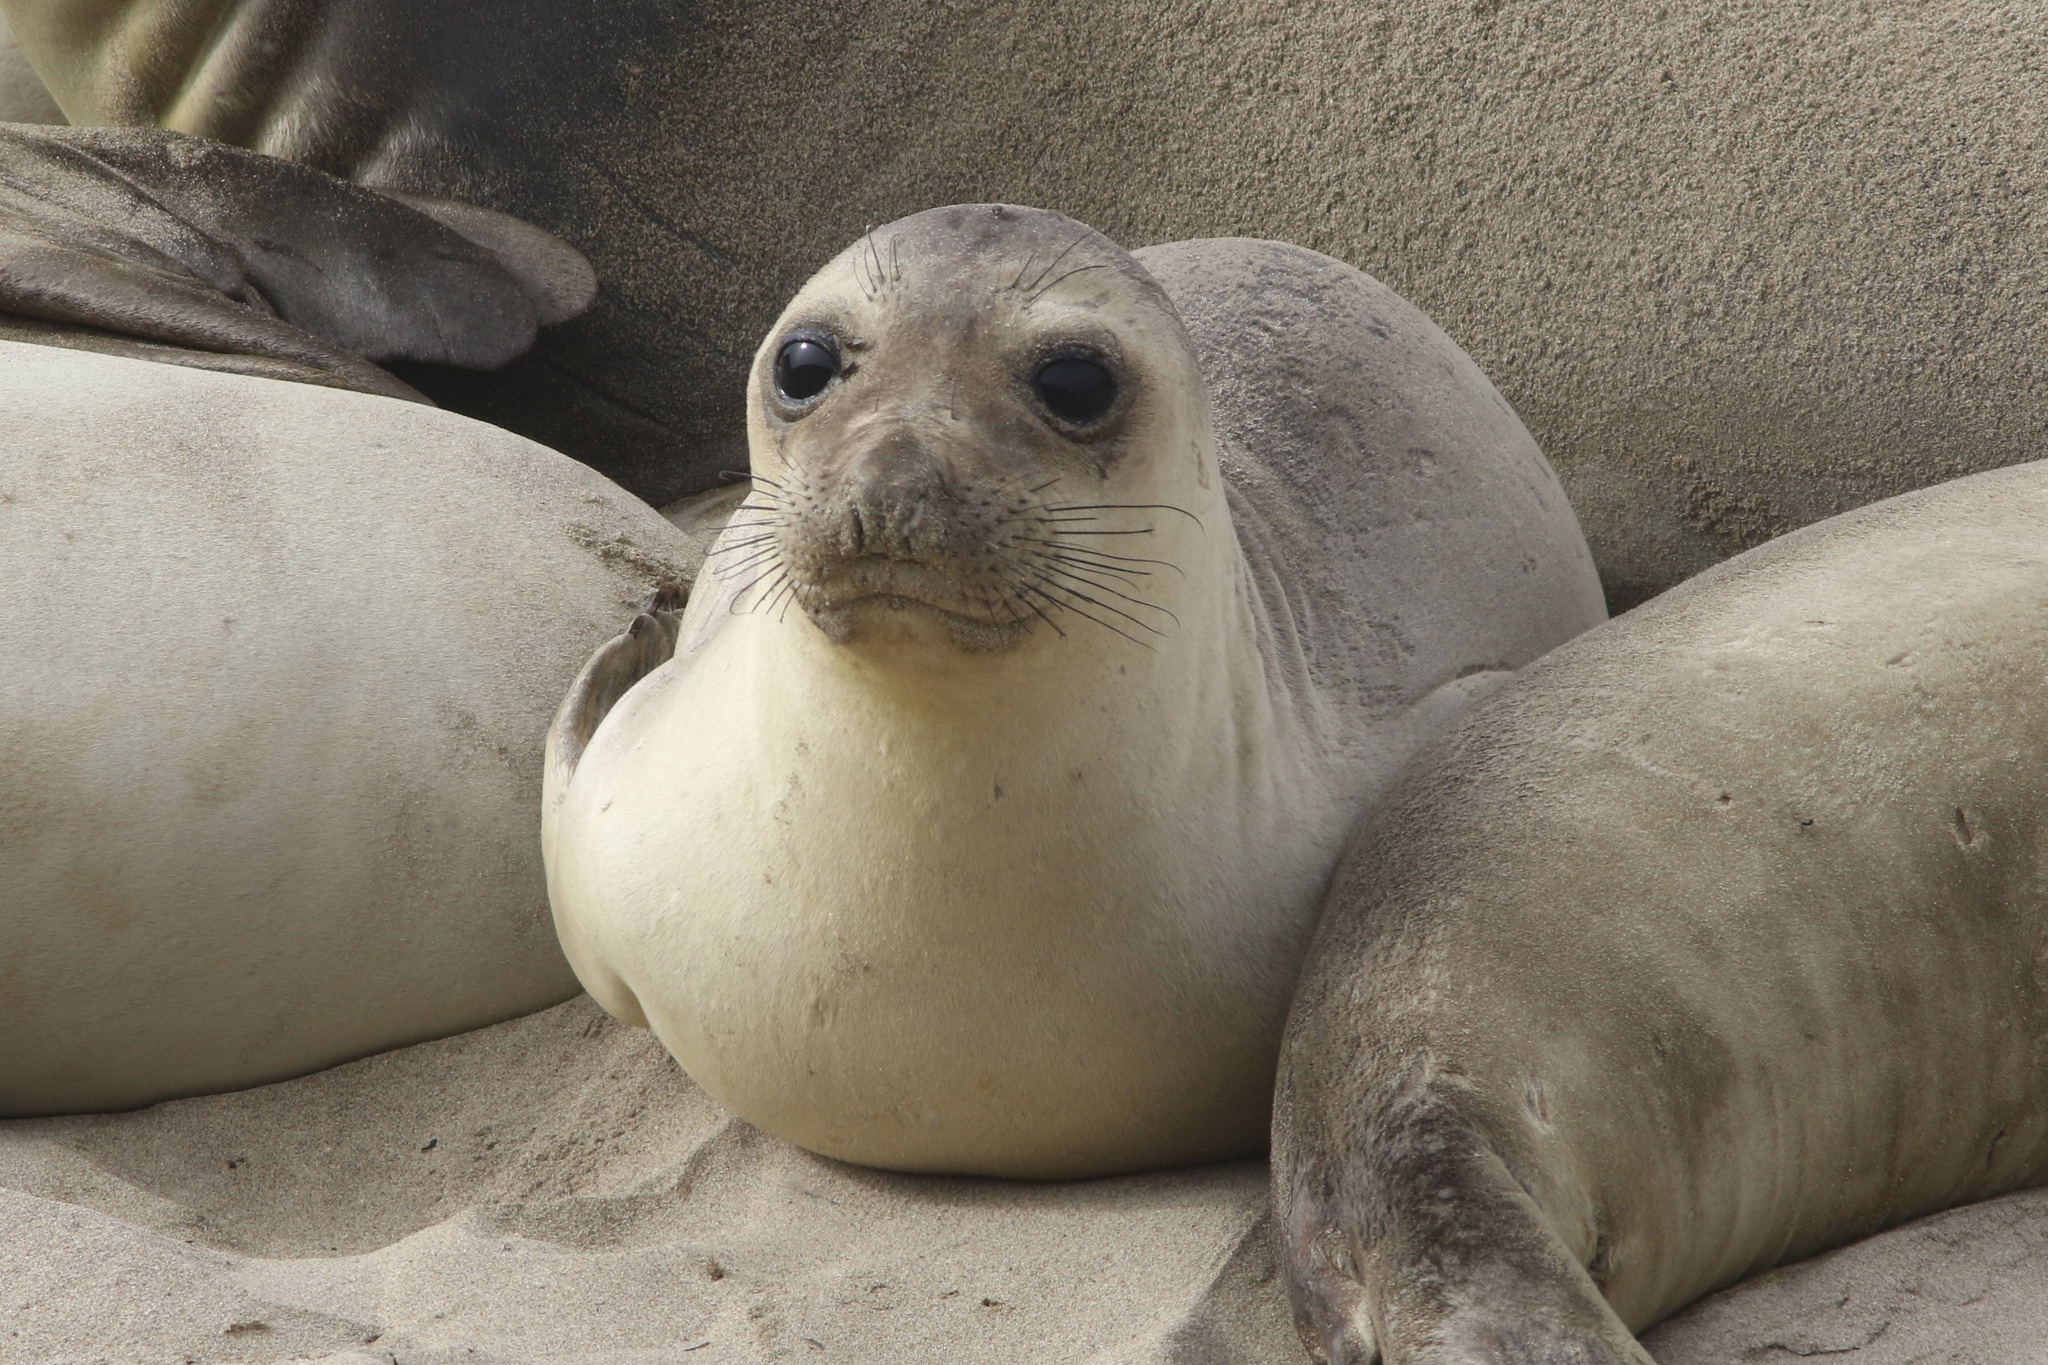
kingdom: Animalia
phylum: Chordata
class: Mammalia
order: Carnivora
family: Phocidae
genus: Mirounga
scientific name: Mirounga angustirostris
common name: Northern elephant seal
